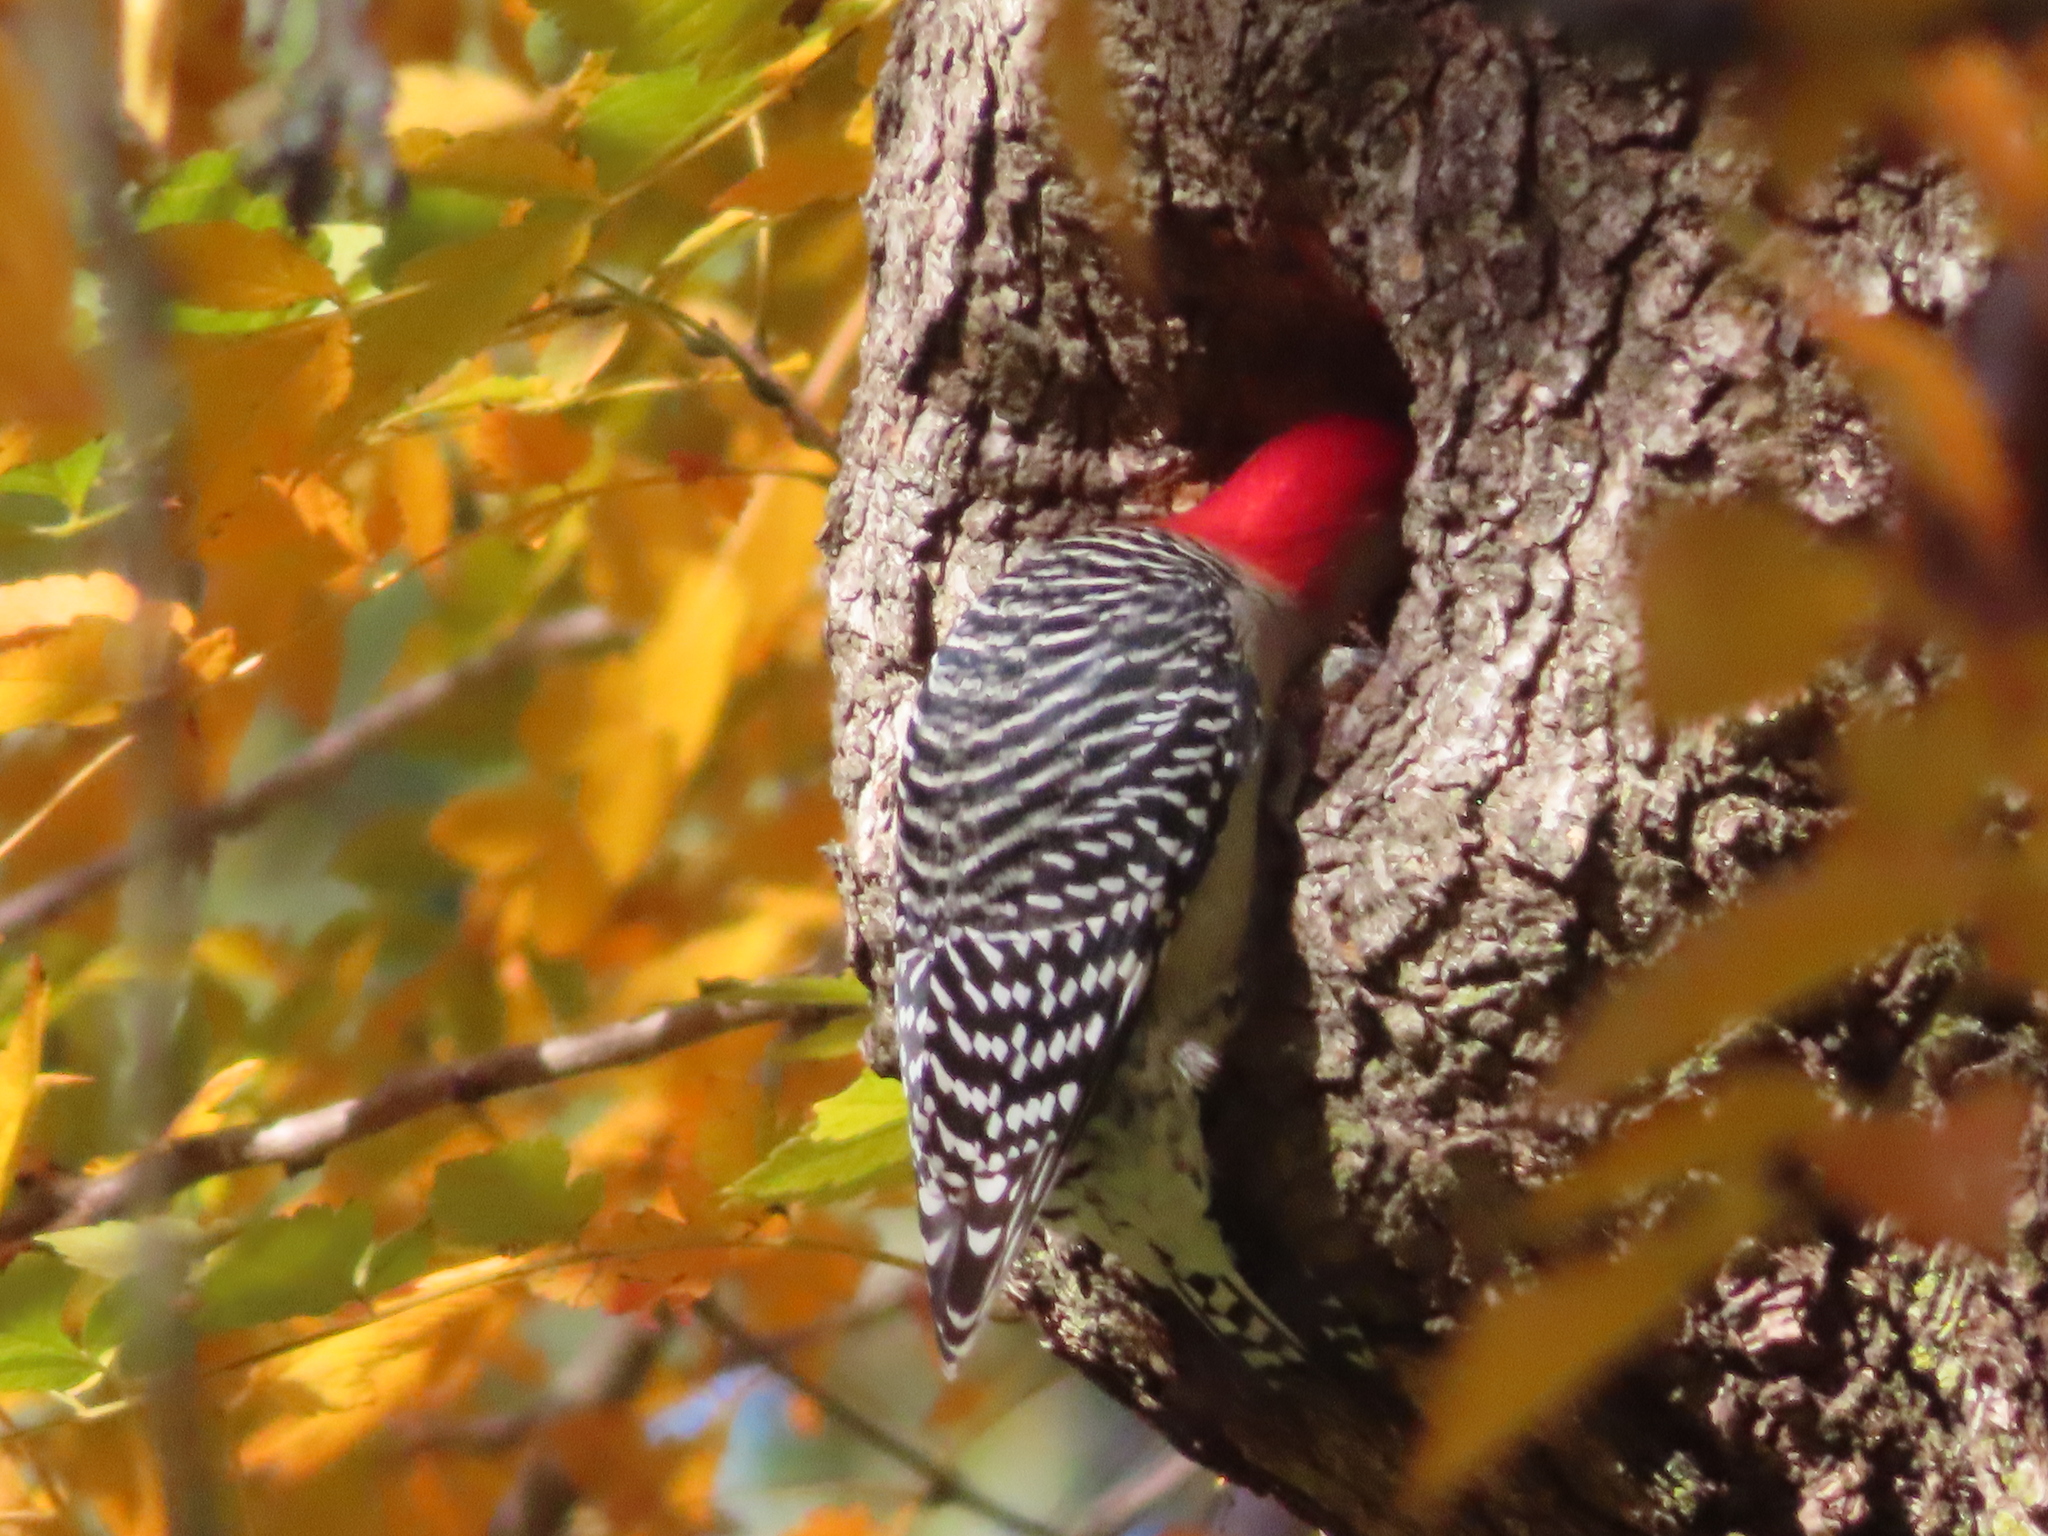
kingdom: Animalia
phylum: Chordata
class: Aves
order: Piciformes
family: Picidae
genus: Melanerpes
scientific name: Melanerpes carolinus
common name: Red-bellied woodpecker
